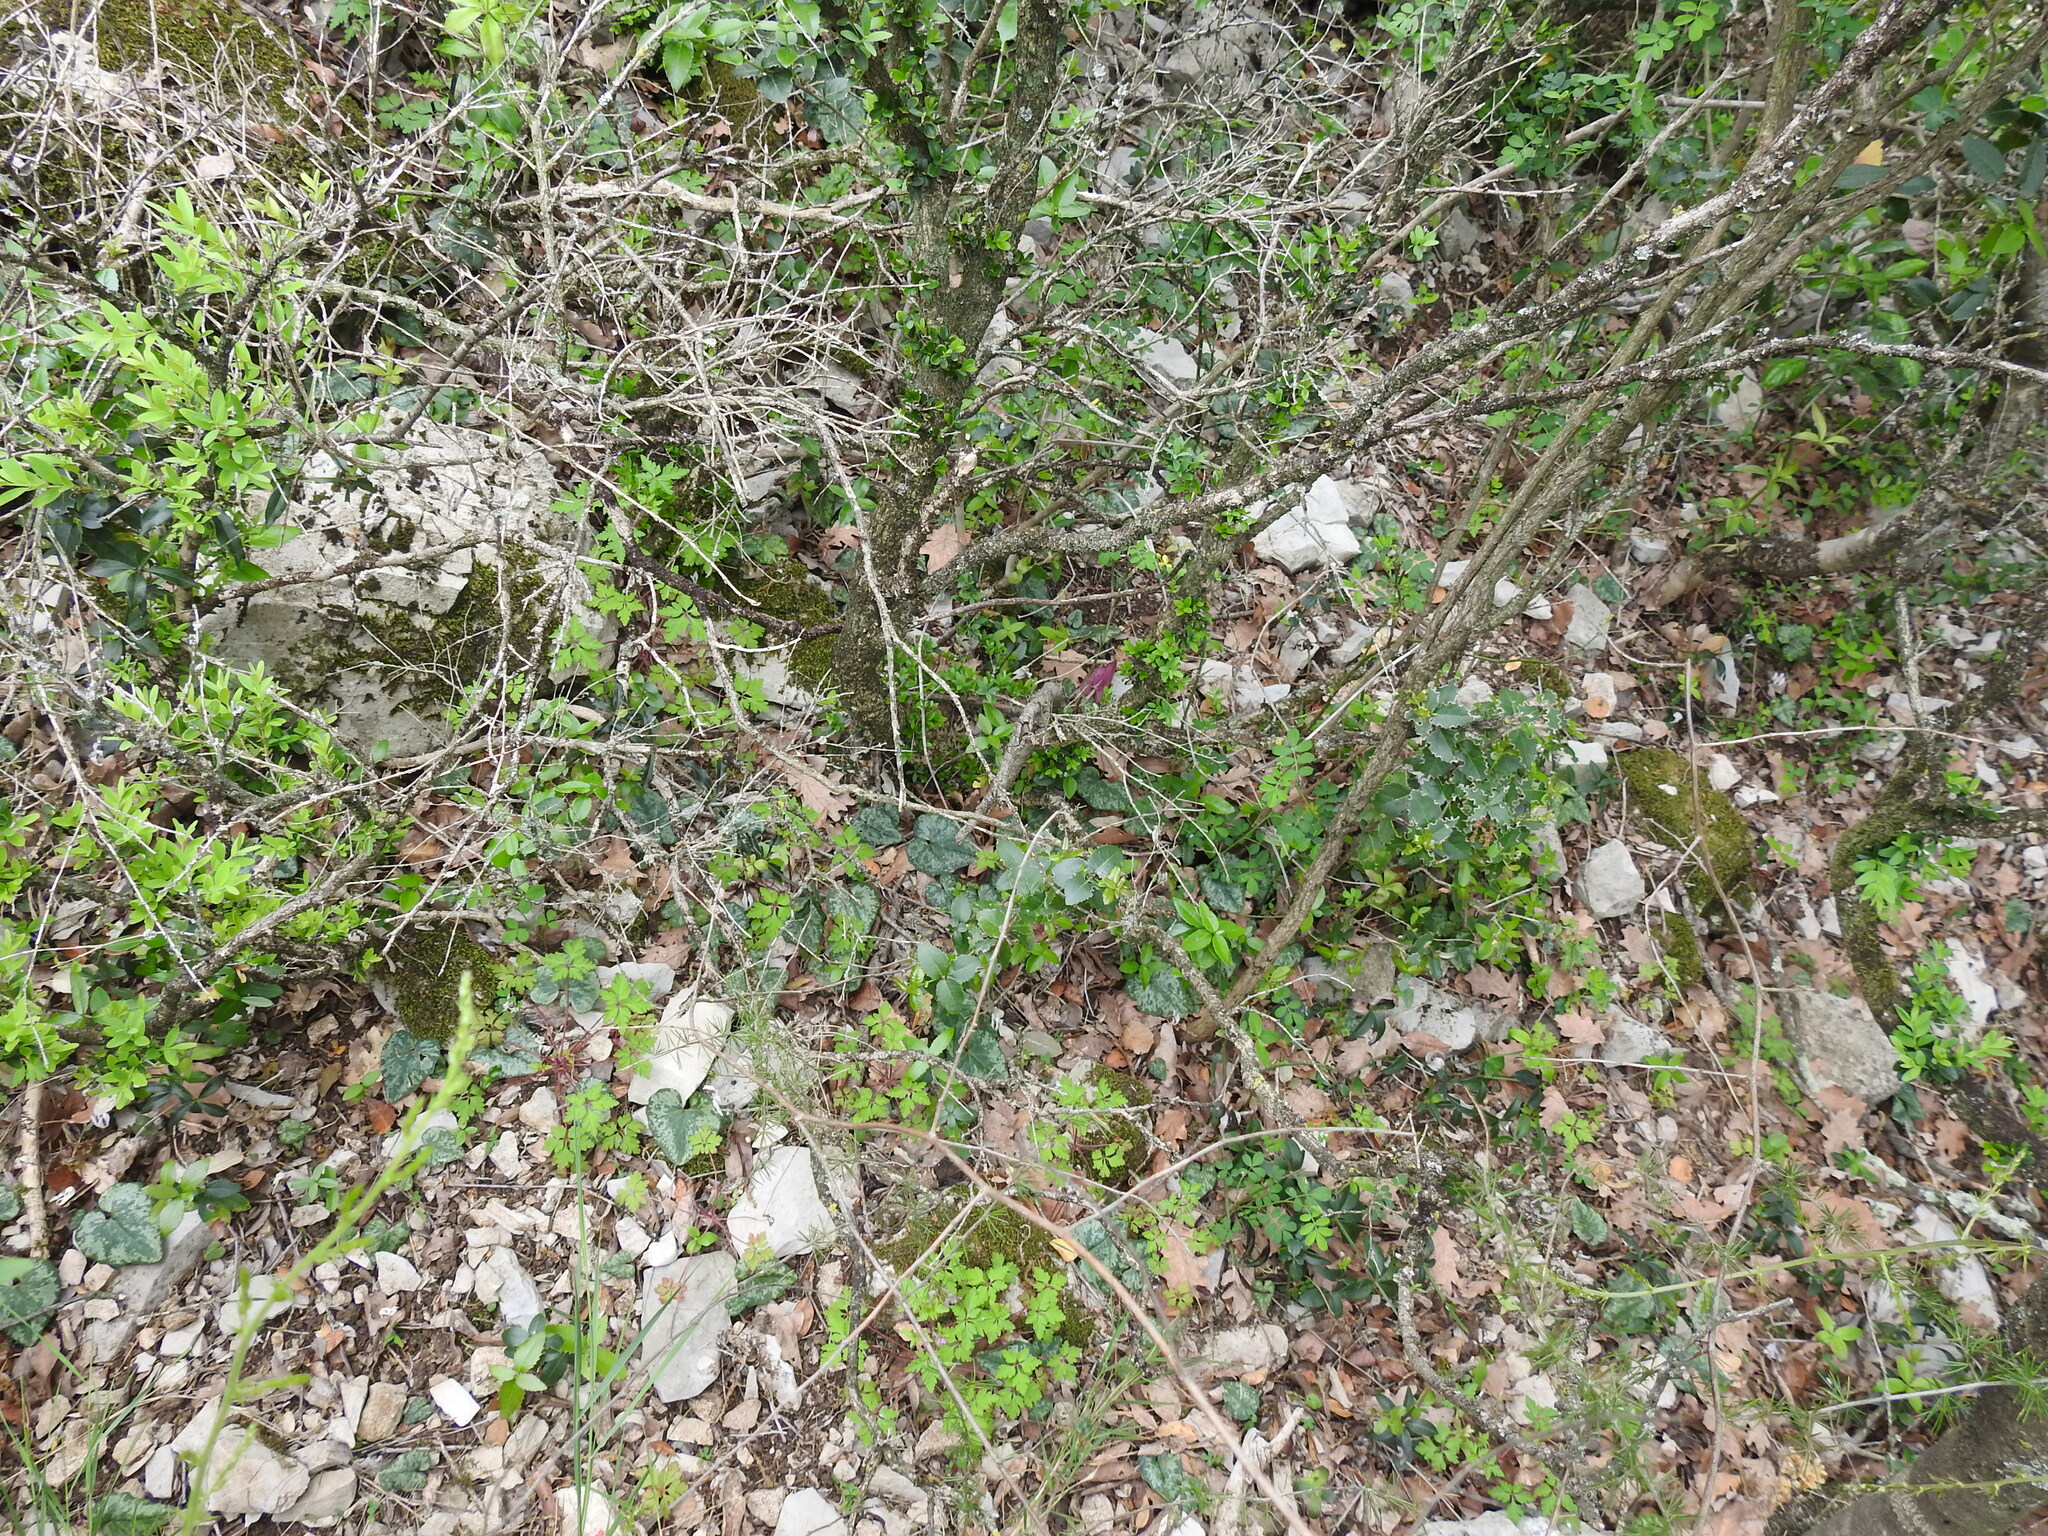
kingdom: Plantae
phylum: Tracheophyta
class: Magnoliopsida
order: Ericales
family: Primulaceae
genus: Cyclamen
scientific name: Cyclamen balearicum
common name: Majorca cyclamen
